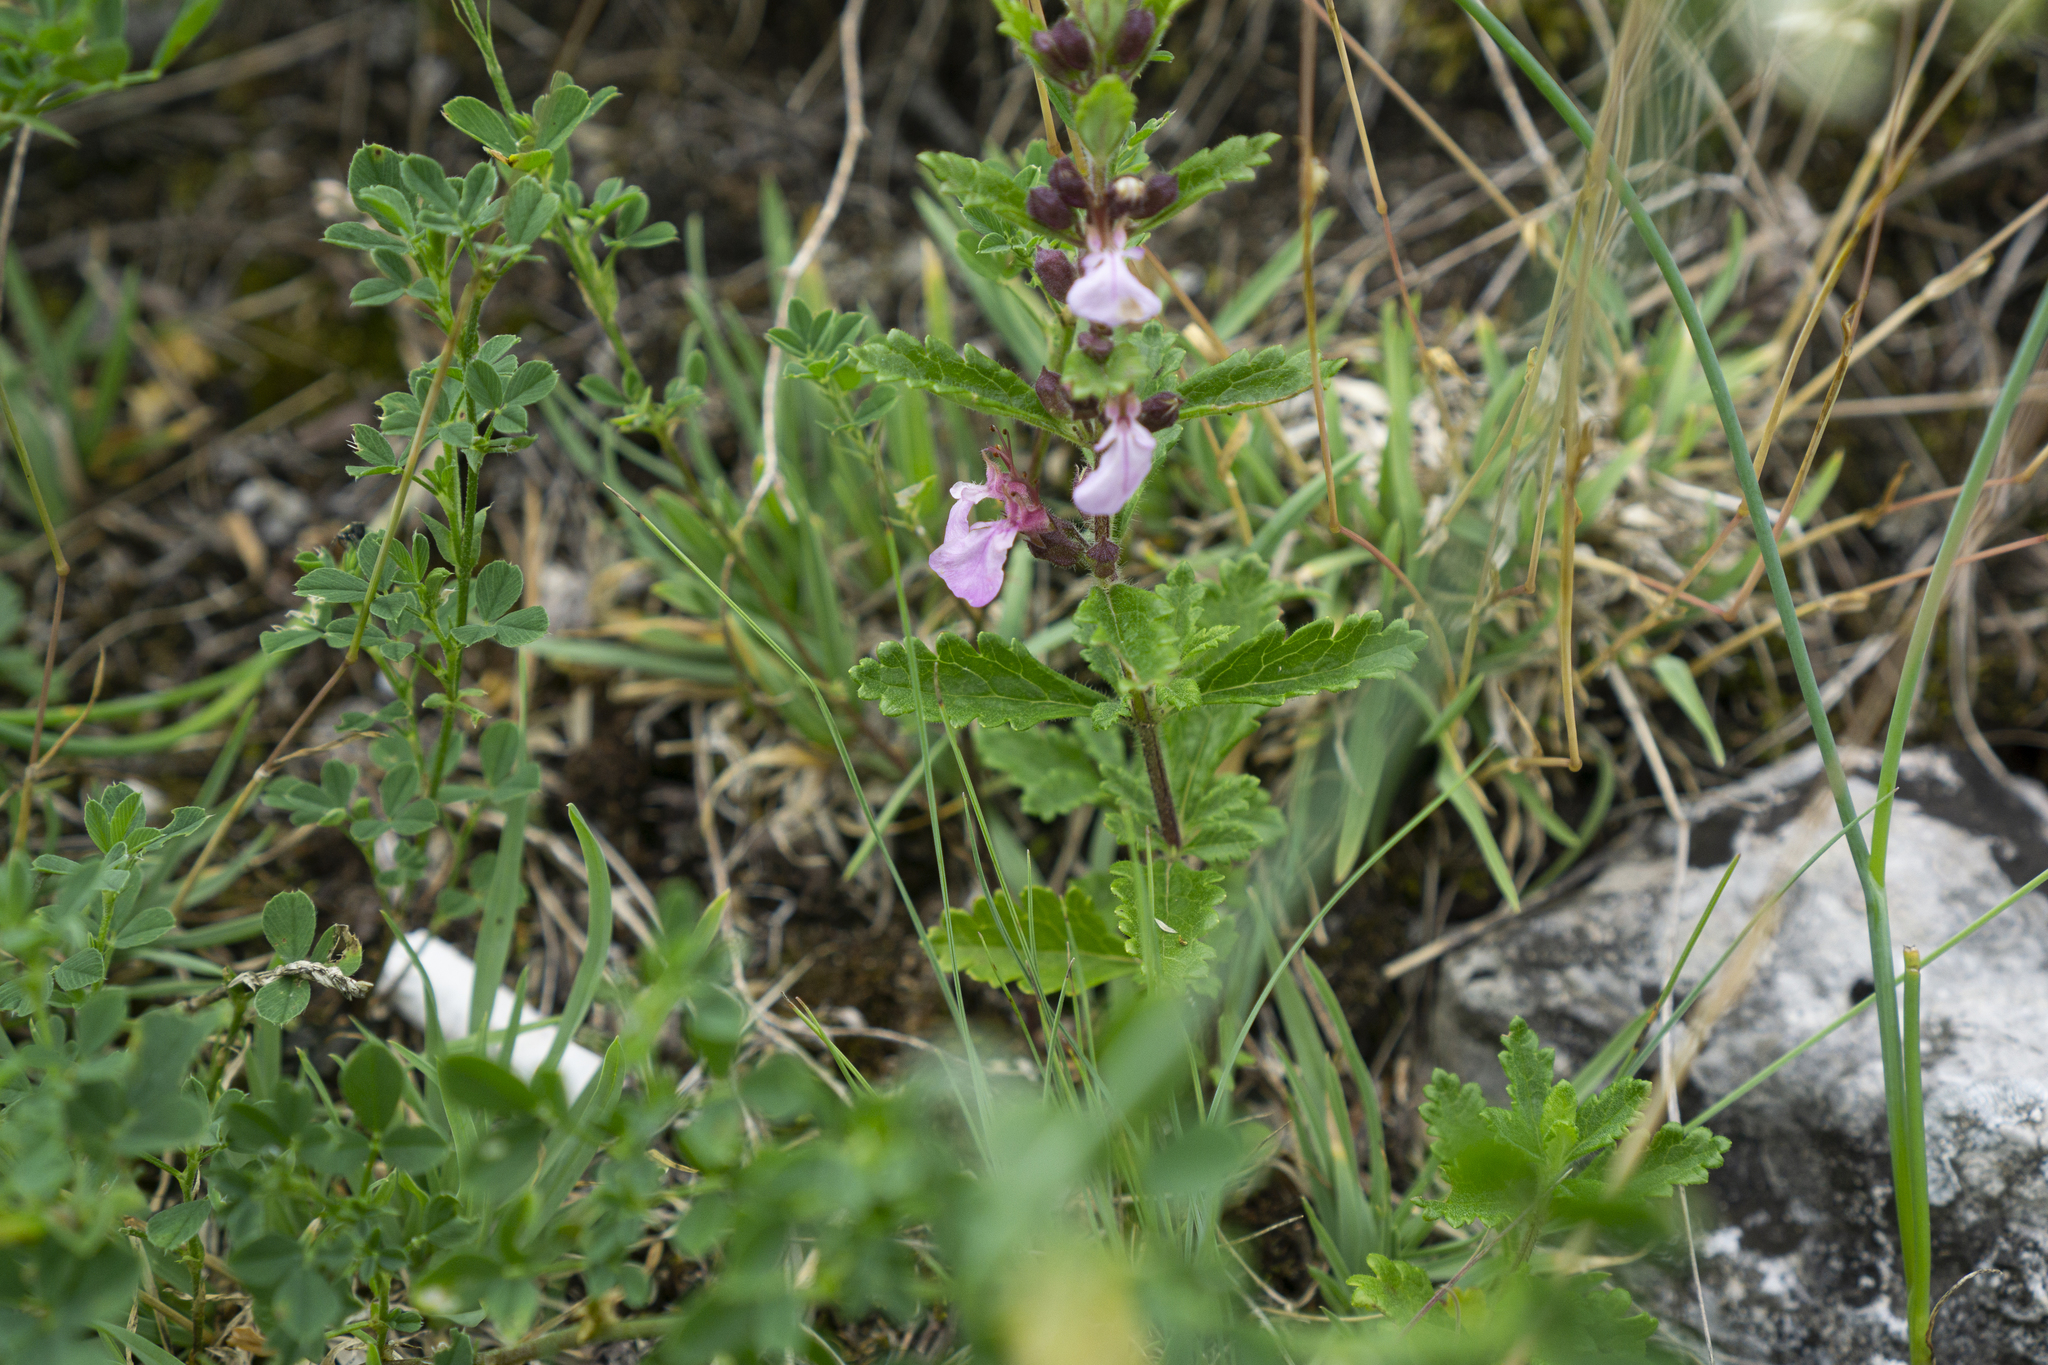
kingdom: Plantae
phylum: Tracheophyta
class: Magnoliopsida
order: Lamiales
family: Lamiaceae
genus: Teucrium
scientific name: Teucrium chamaedrys
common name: Wall germander
